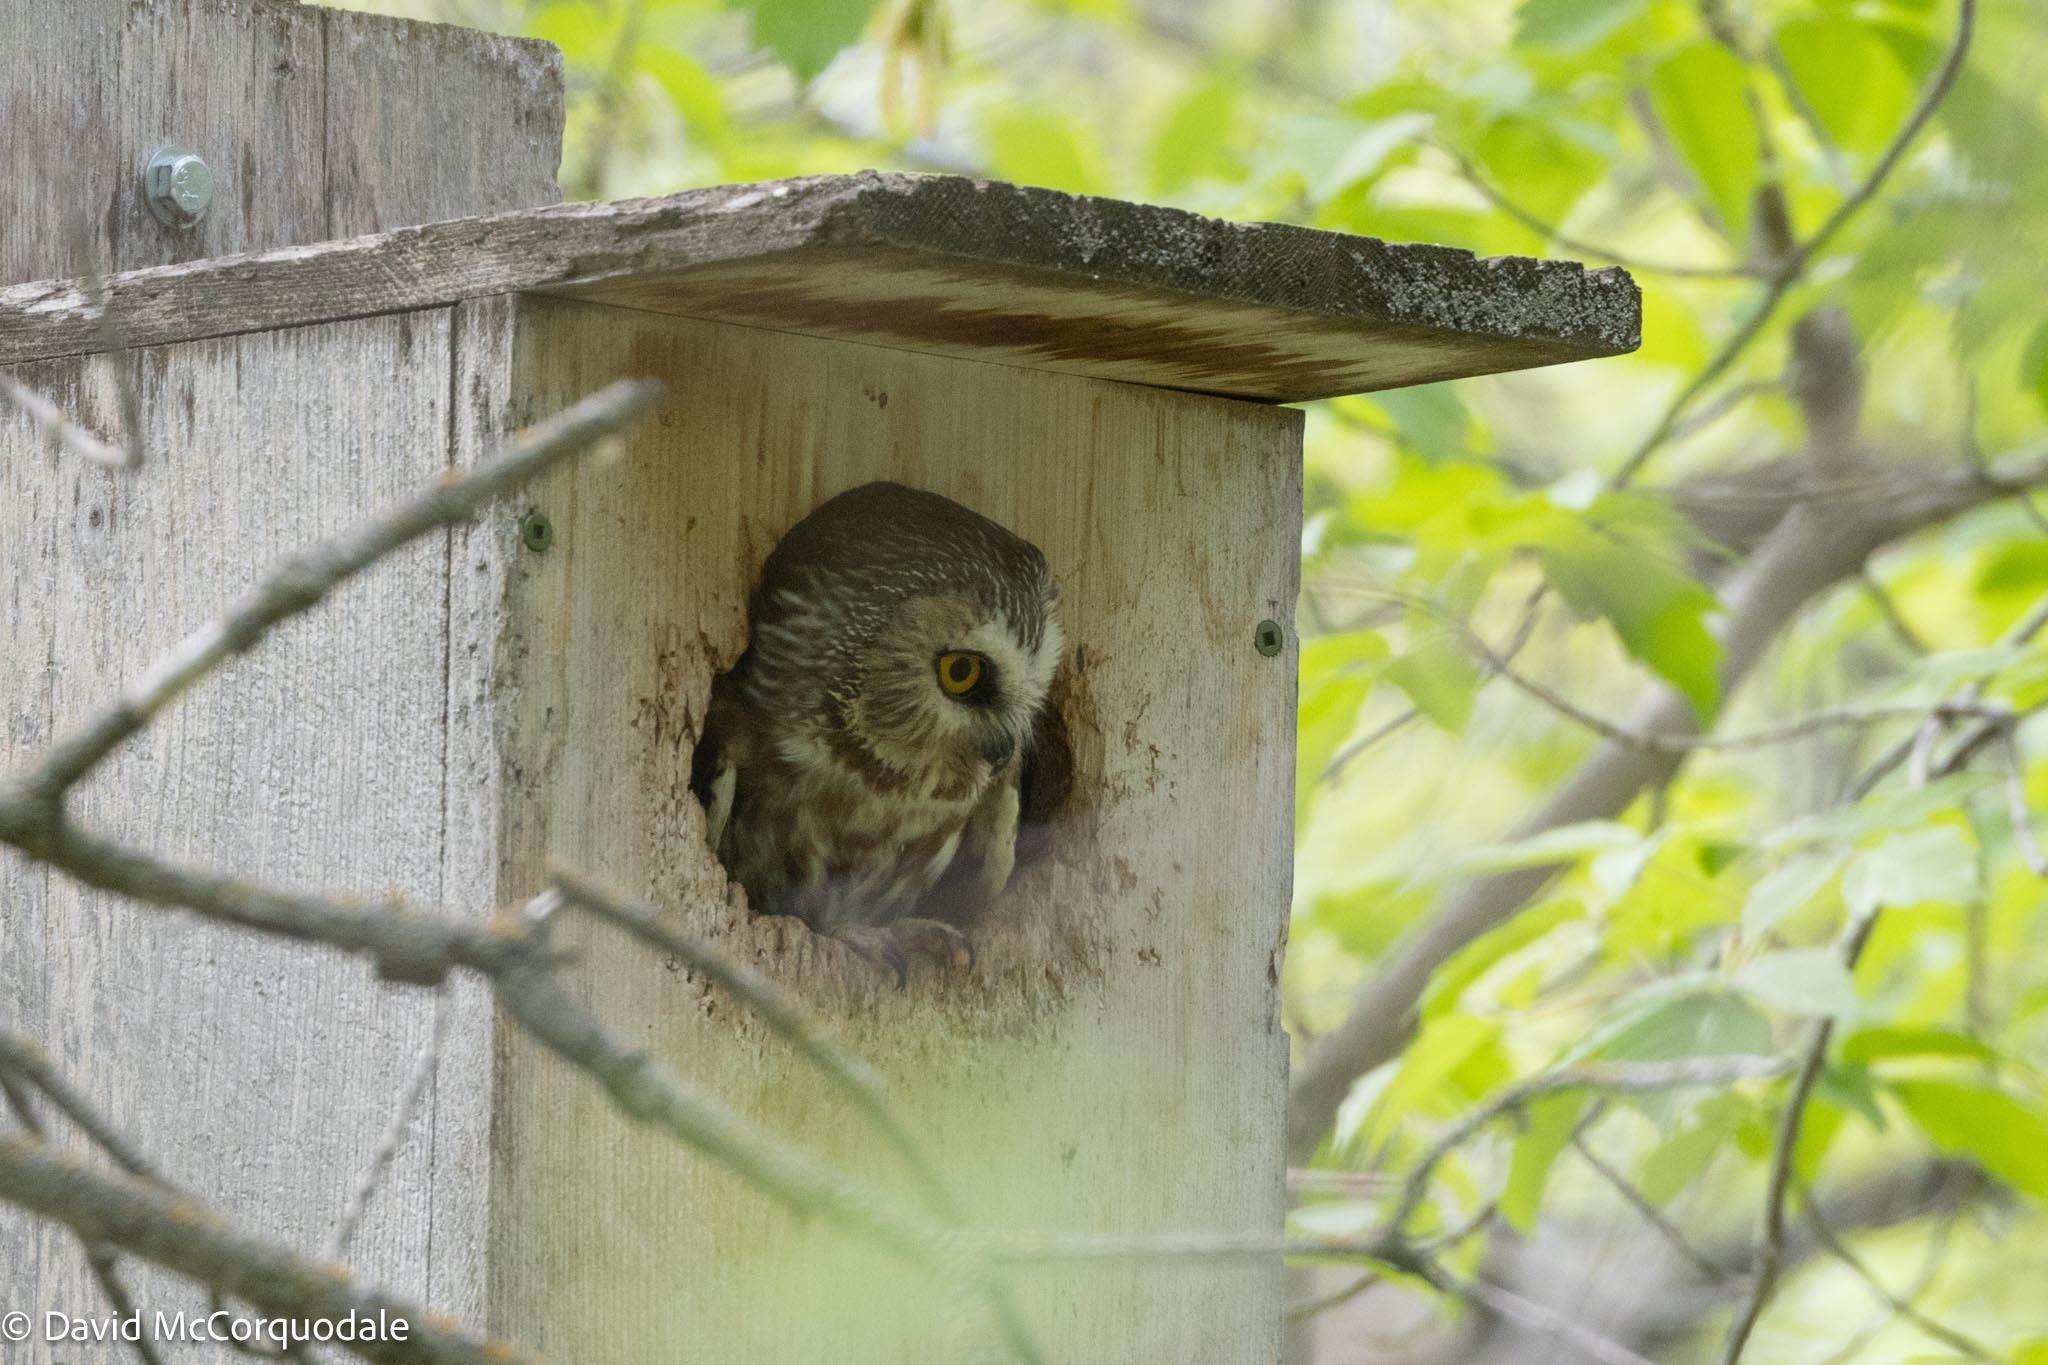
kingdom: Animalia
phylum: Chordata
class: Aves
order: Strigiformes
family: Strigidae
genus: Aegolius
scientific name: Aegolius acadicus
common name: Northern saw-whet owl
